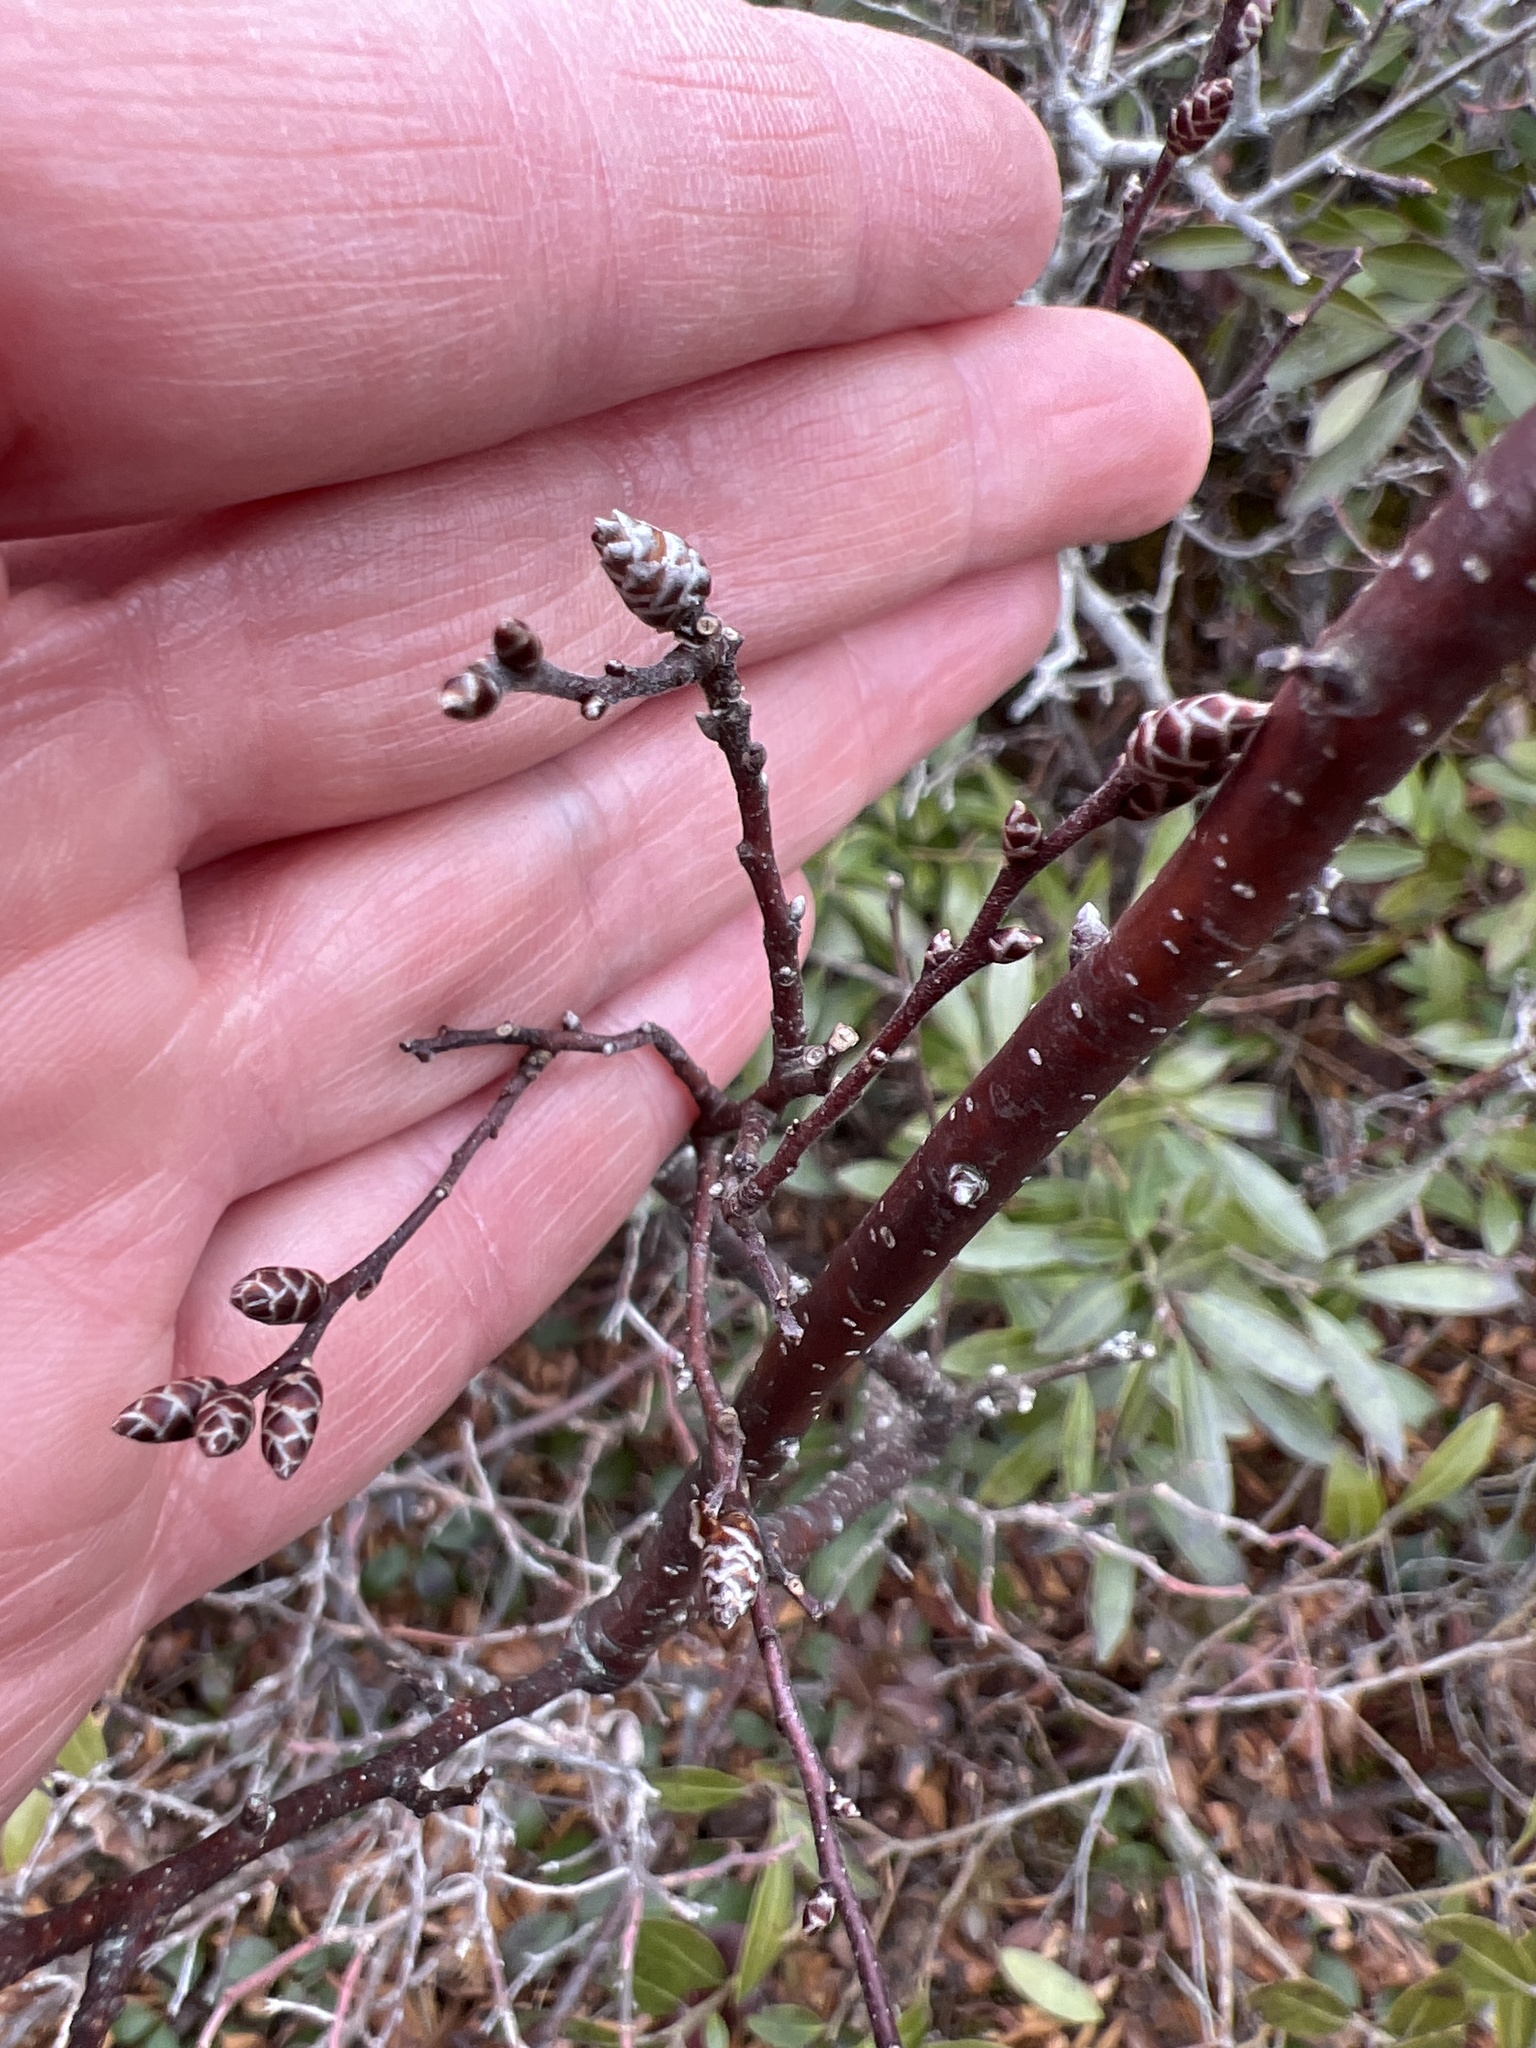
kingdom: Plantae
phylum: Tracheophyta
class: Magnoliopsida
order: Fagales
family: Myricaceae
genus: Myrica
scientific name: Myrica gale
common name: Sweet gale
